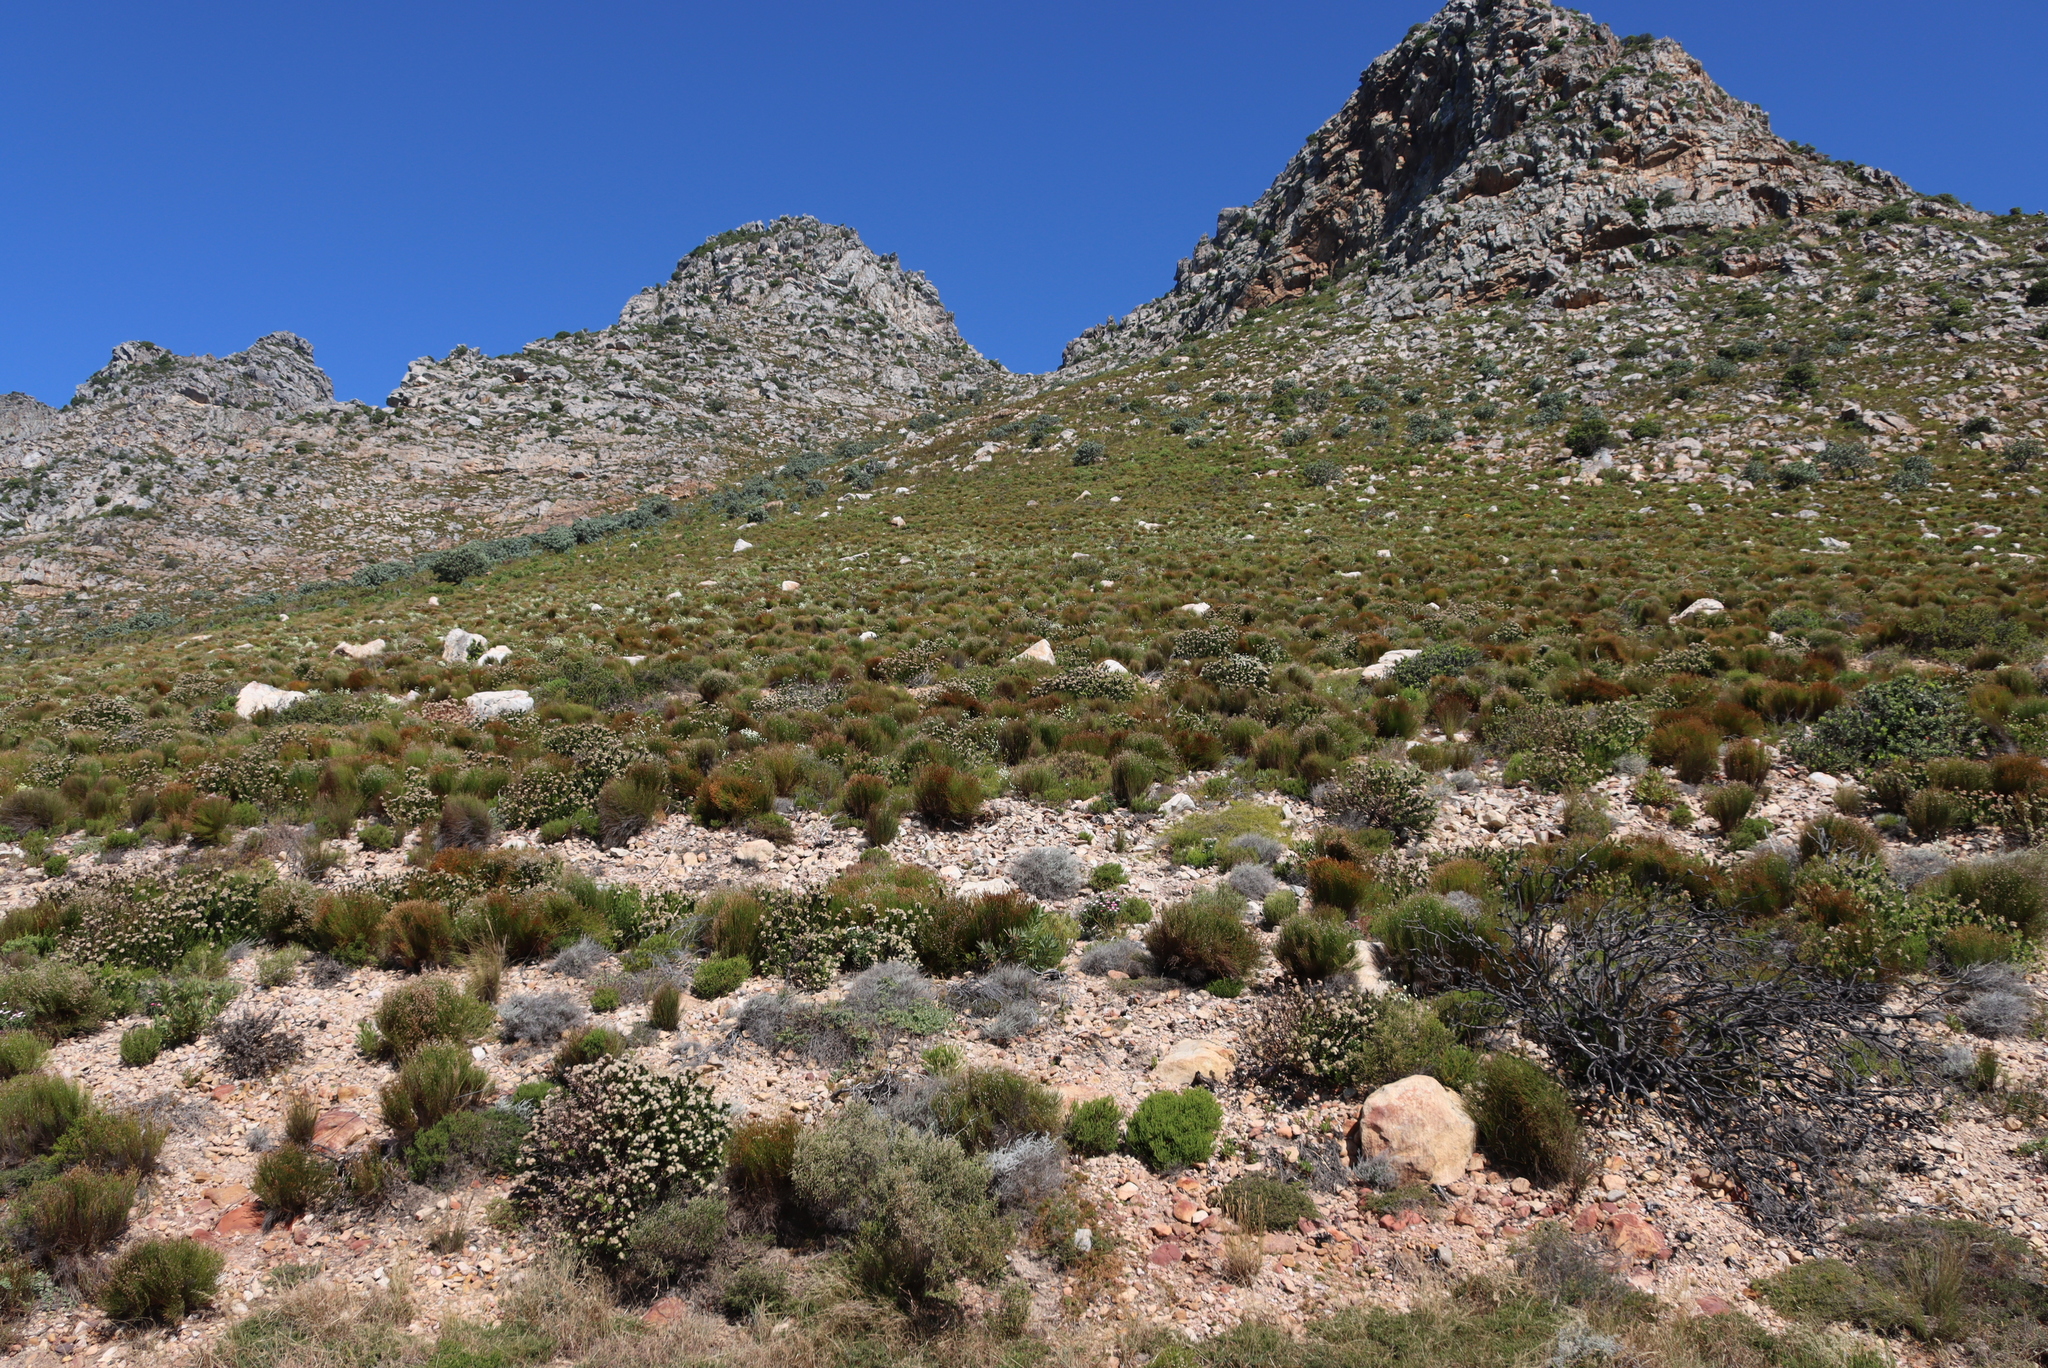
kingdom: Plantae
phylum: Tracheophyta
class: Magnoliopsida
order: Proteales
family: Proteaceae
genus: Leucospermum
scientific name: Leucospermum bolusii
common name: Gordon's bay pincushion
